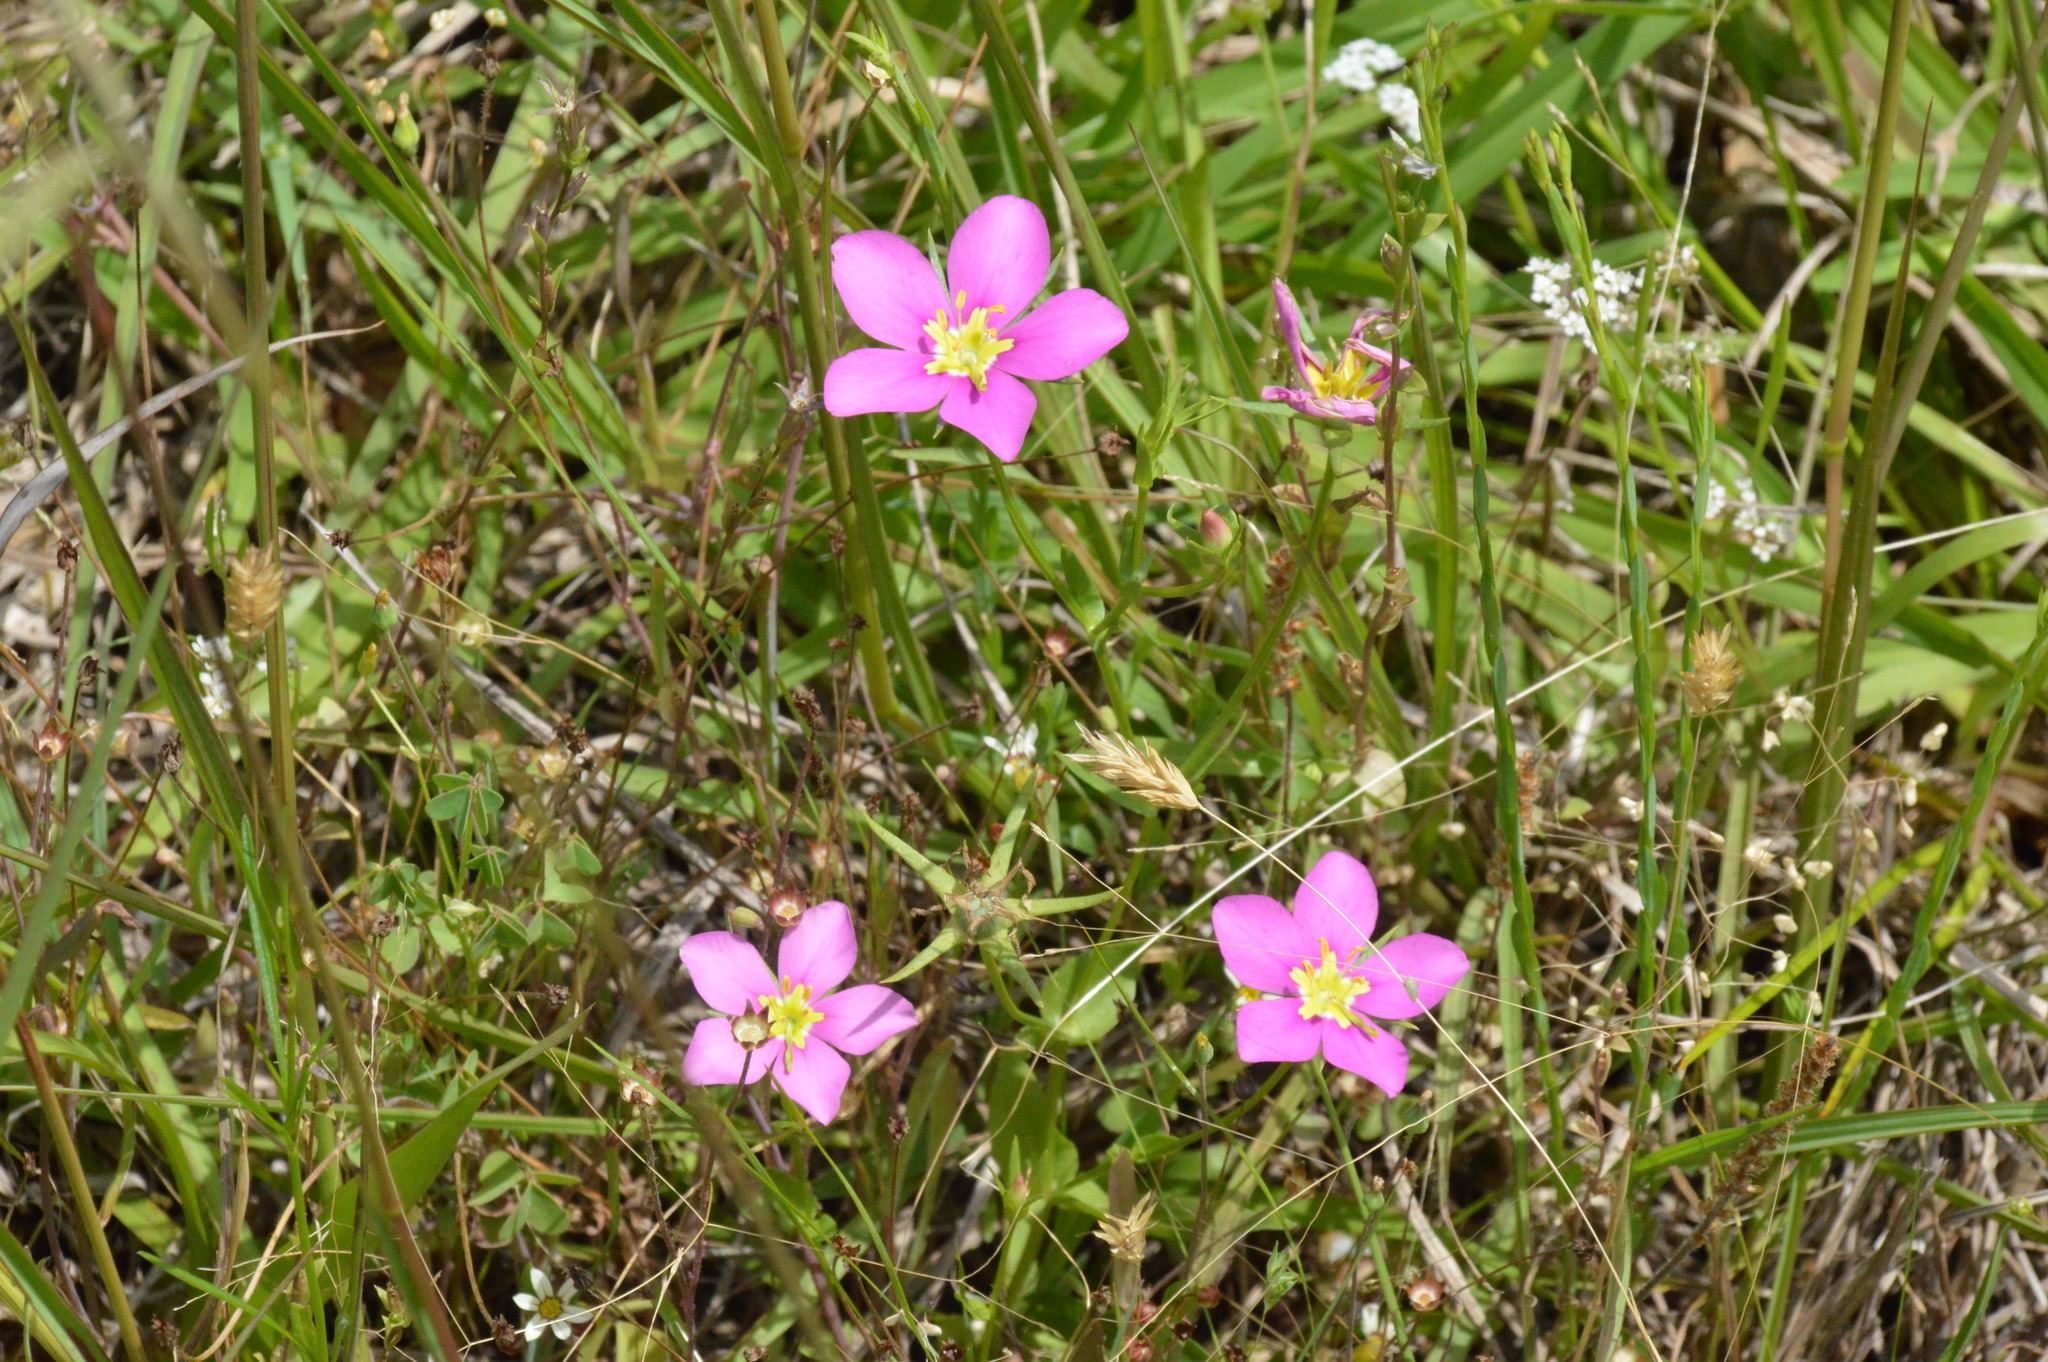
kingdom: Plantae
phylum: Tracheophyta
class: Magnoliopsida
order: Gentianales
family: Gentianaceae
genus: Sabatia
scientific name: Sabatia campestris
